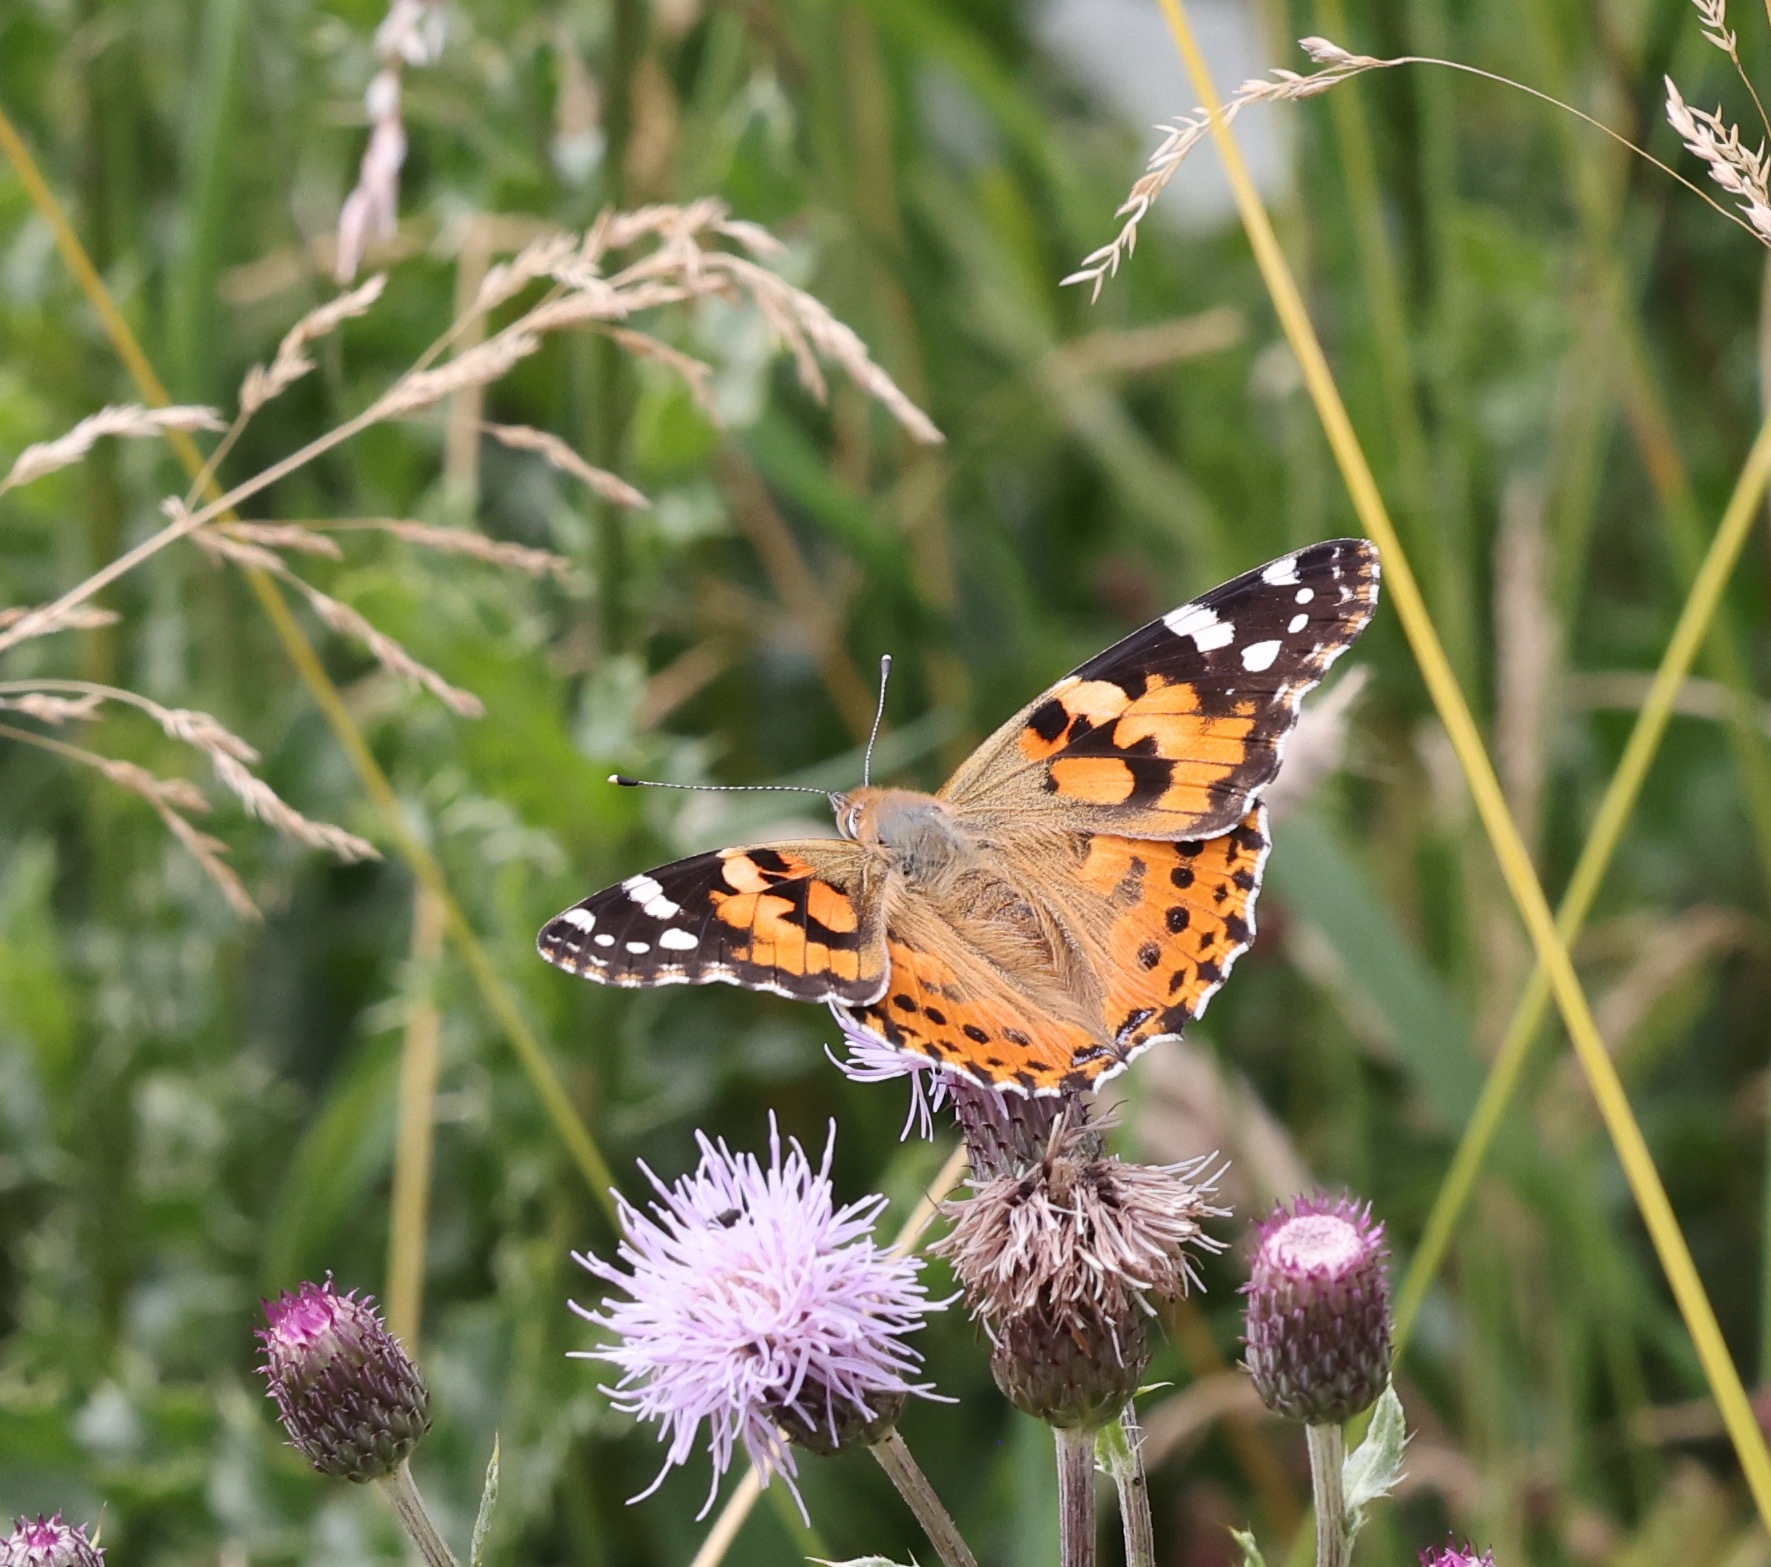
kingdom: Animalia
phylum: Arthropoda
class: Insecta
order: Lepidoptera
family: Nymphalidae
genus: Vanessa
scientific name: Vanessa cardui
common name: Painted lady
